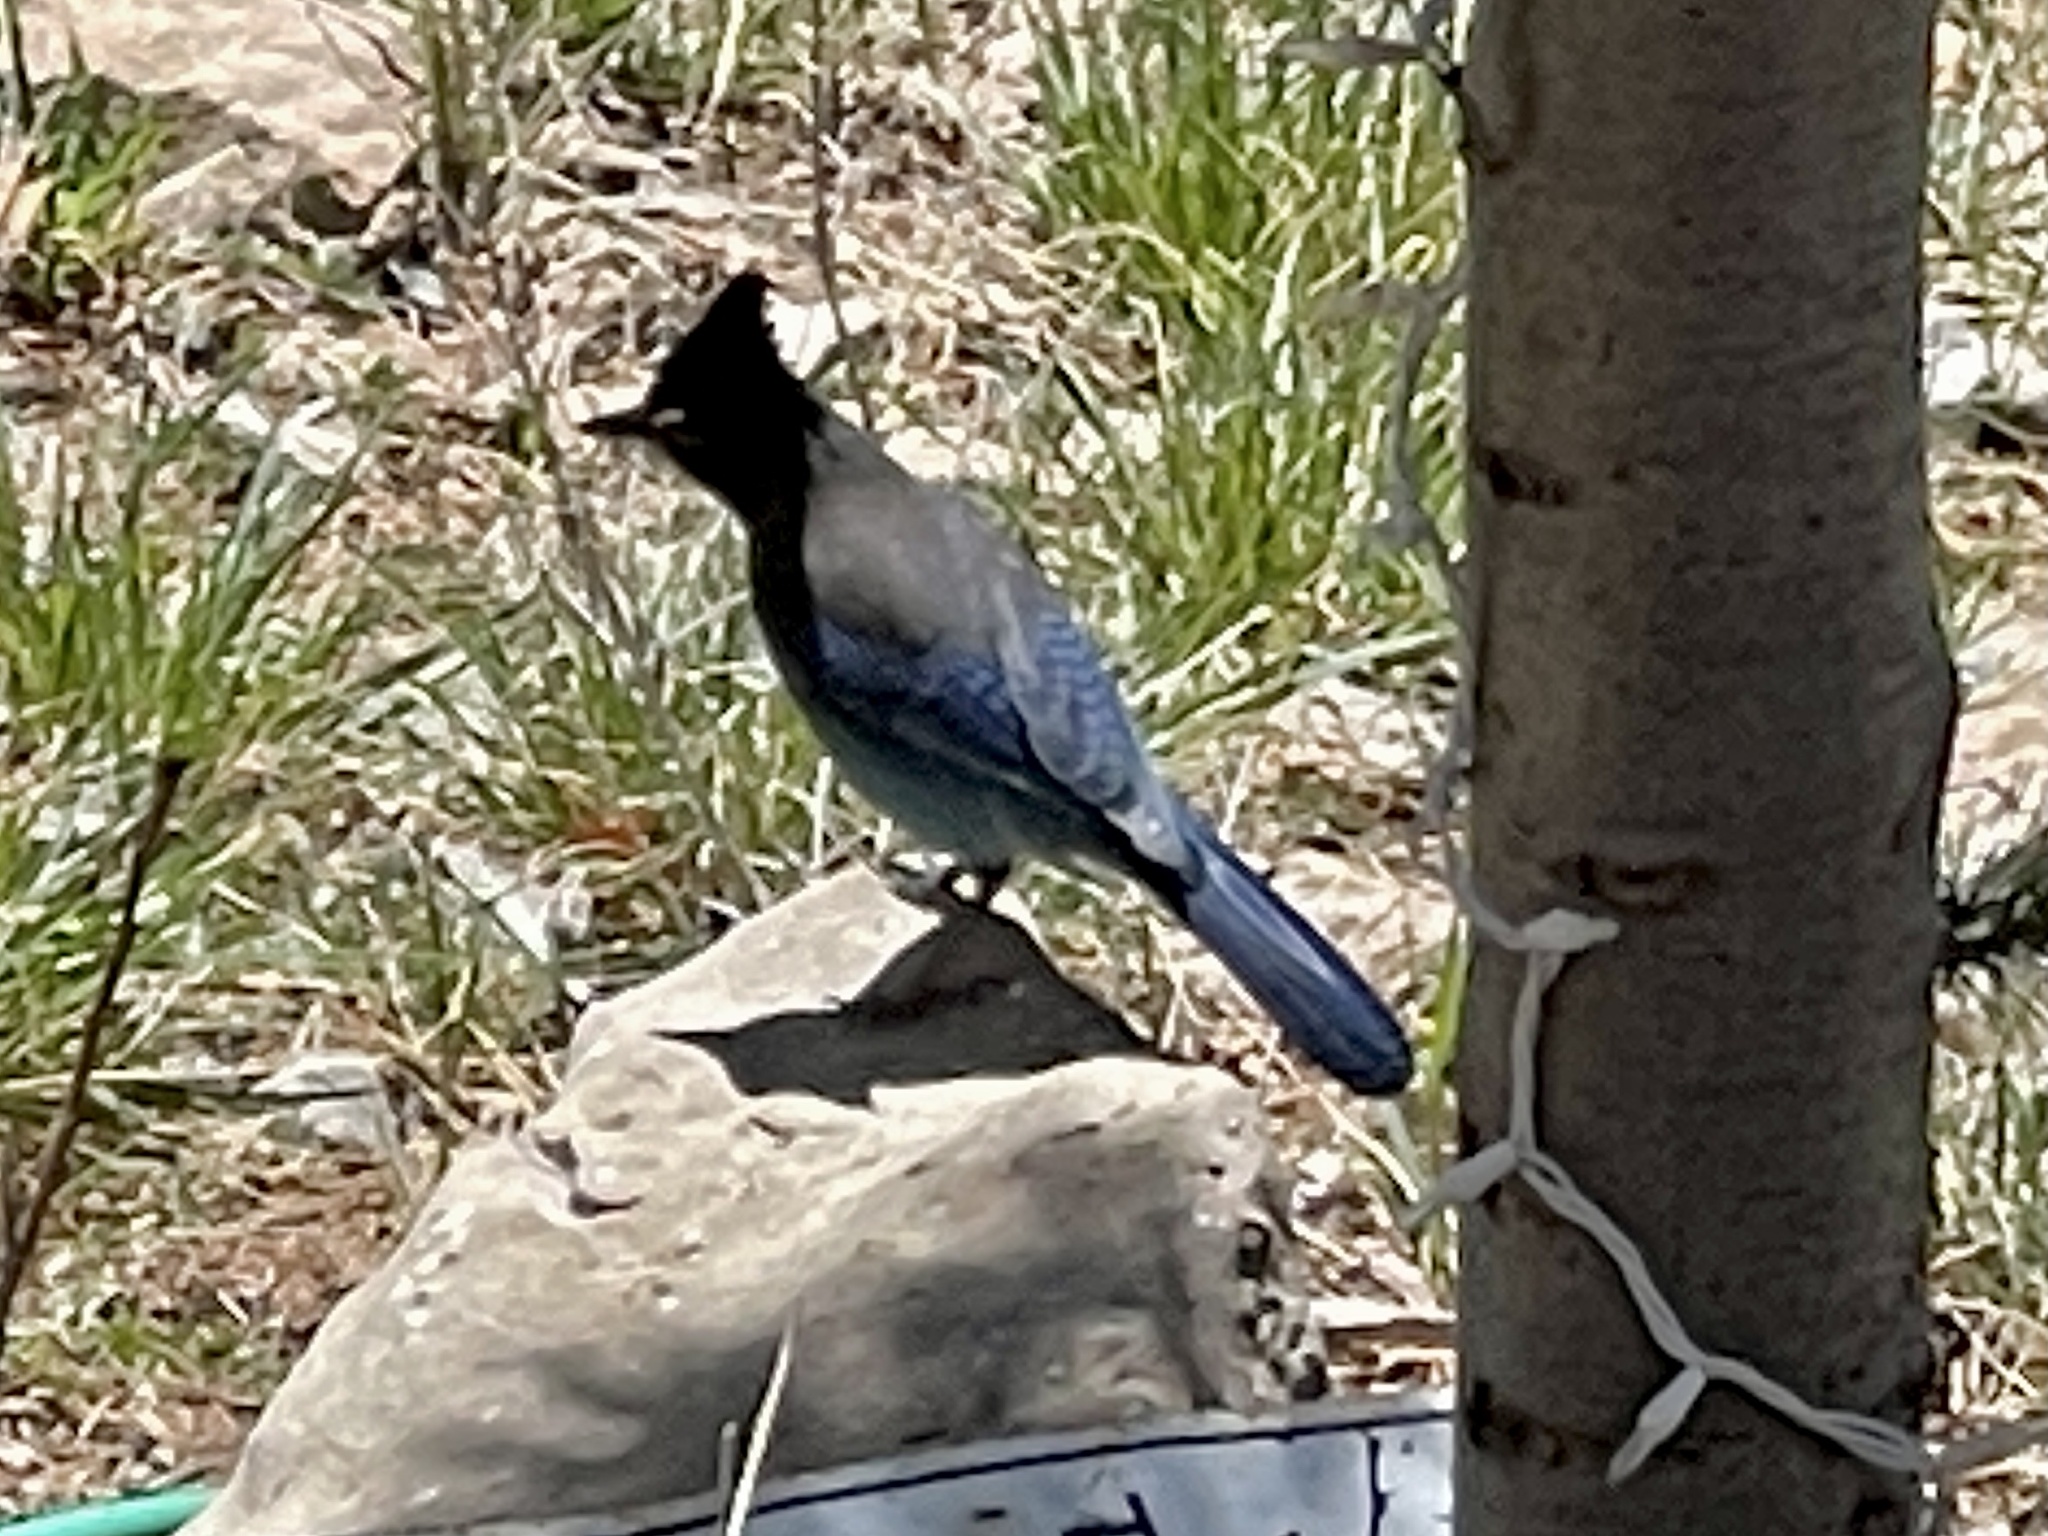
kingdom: Animalia
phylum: Chordata
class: Aves
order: Passeriformes
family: Corvidae
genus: Cyanocitta
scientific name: Cyanocitta stelleri
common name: Steller's jay
